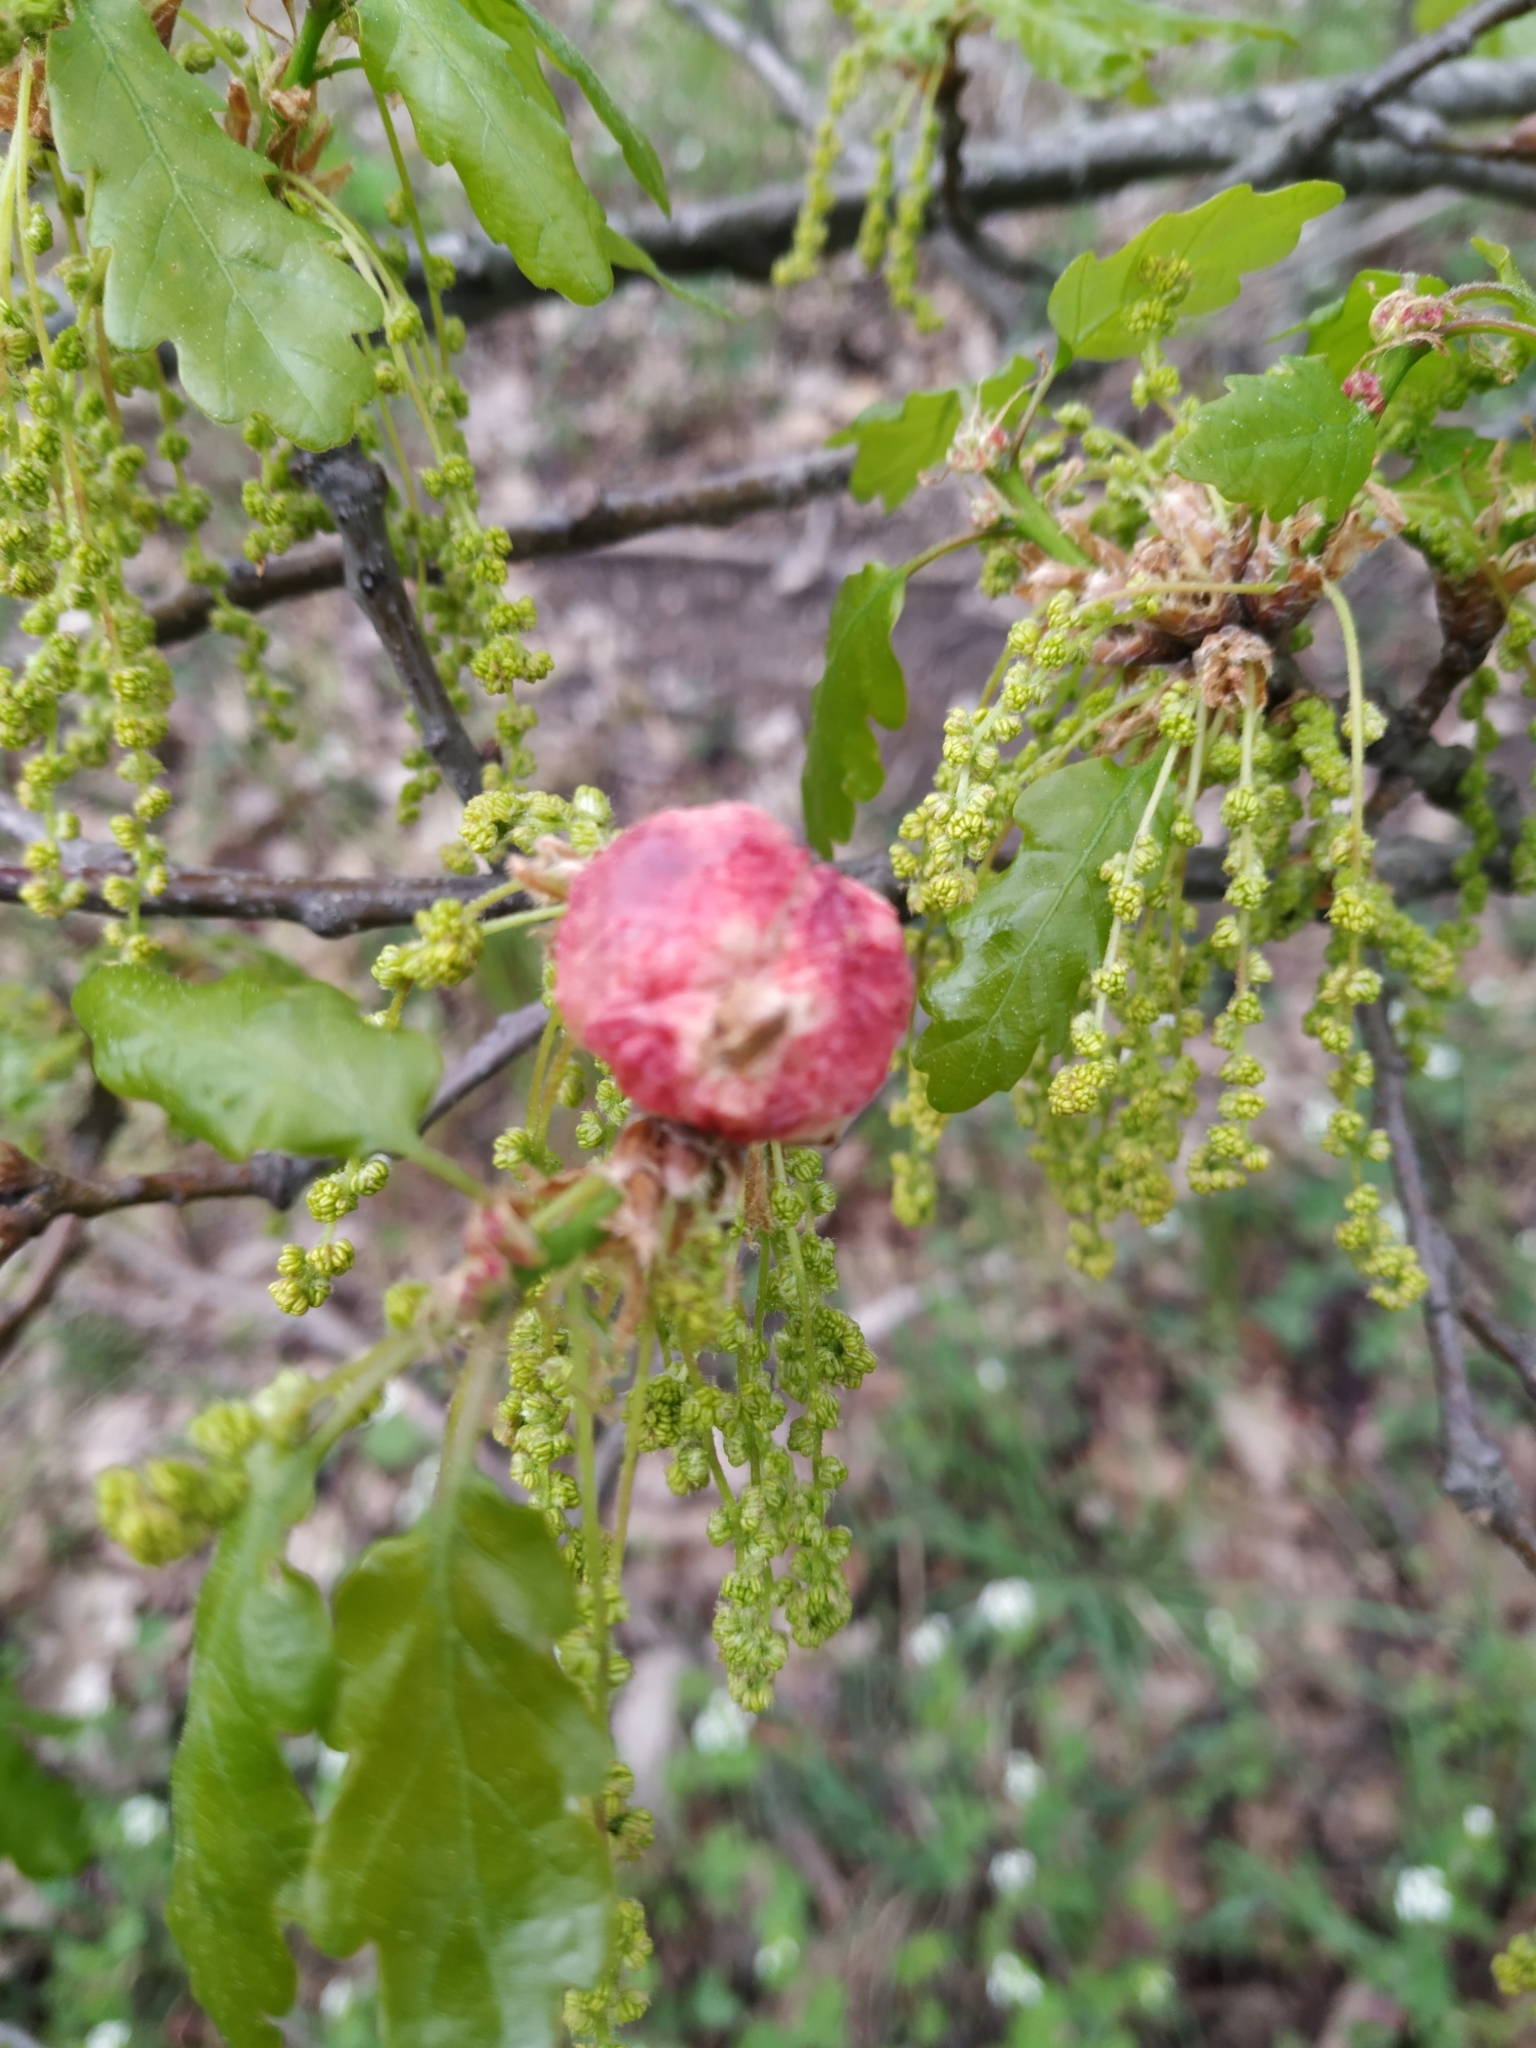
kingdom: Animalia
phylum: Arthropoda
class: Insecta
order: Hymenoptera
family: Cynipidae
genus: Biorhiza
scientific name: Biorhiza pallida
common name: Oak apple
